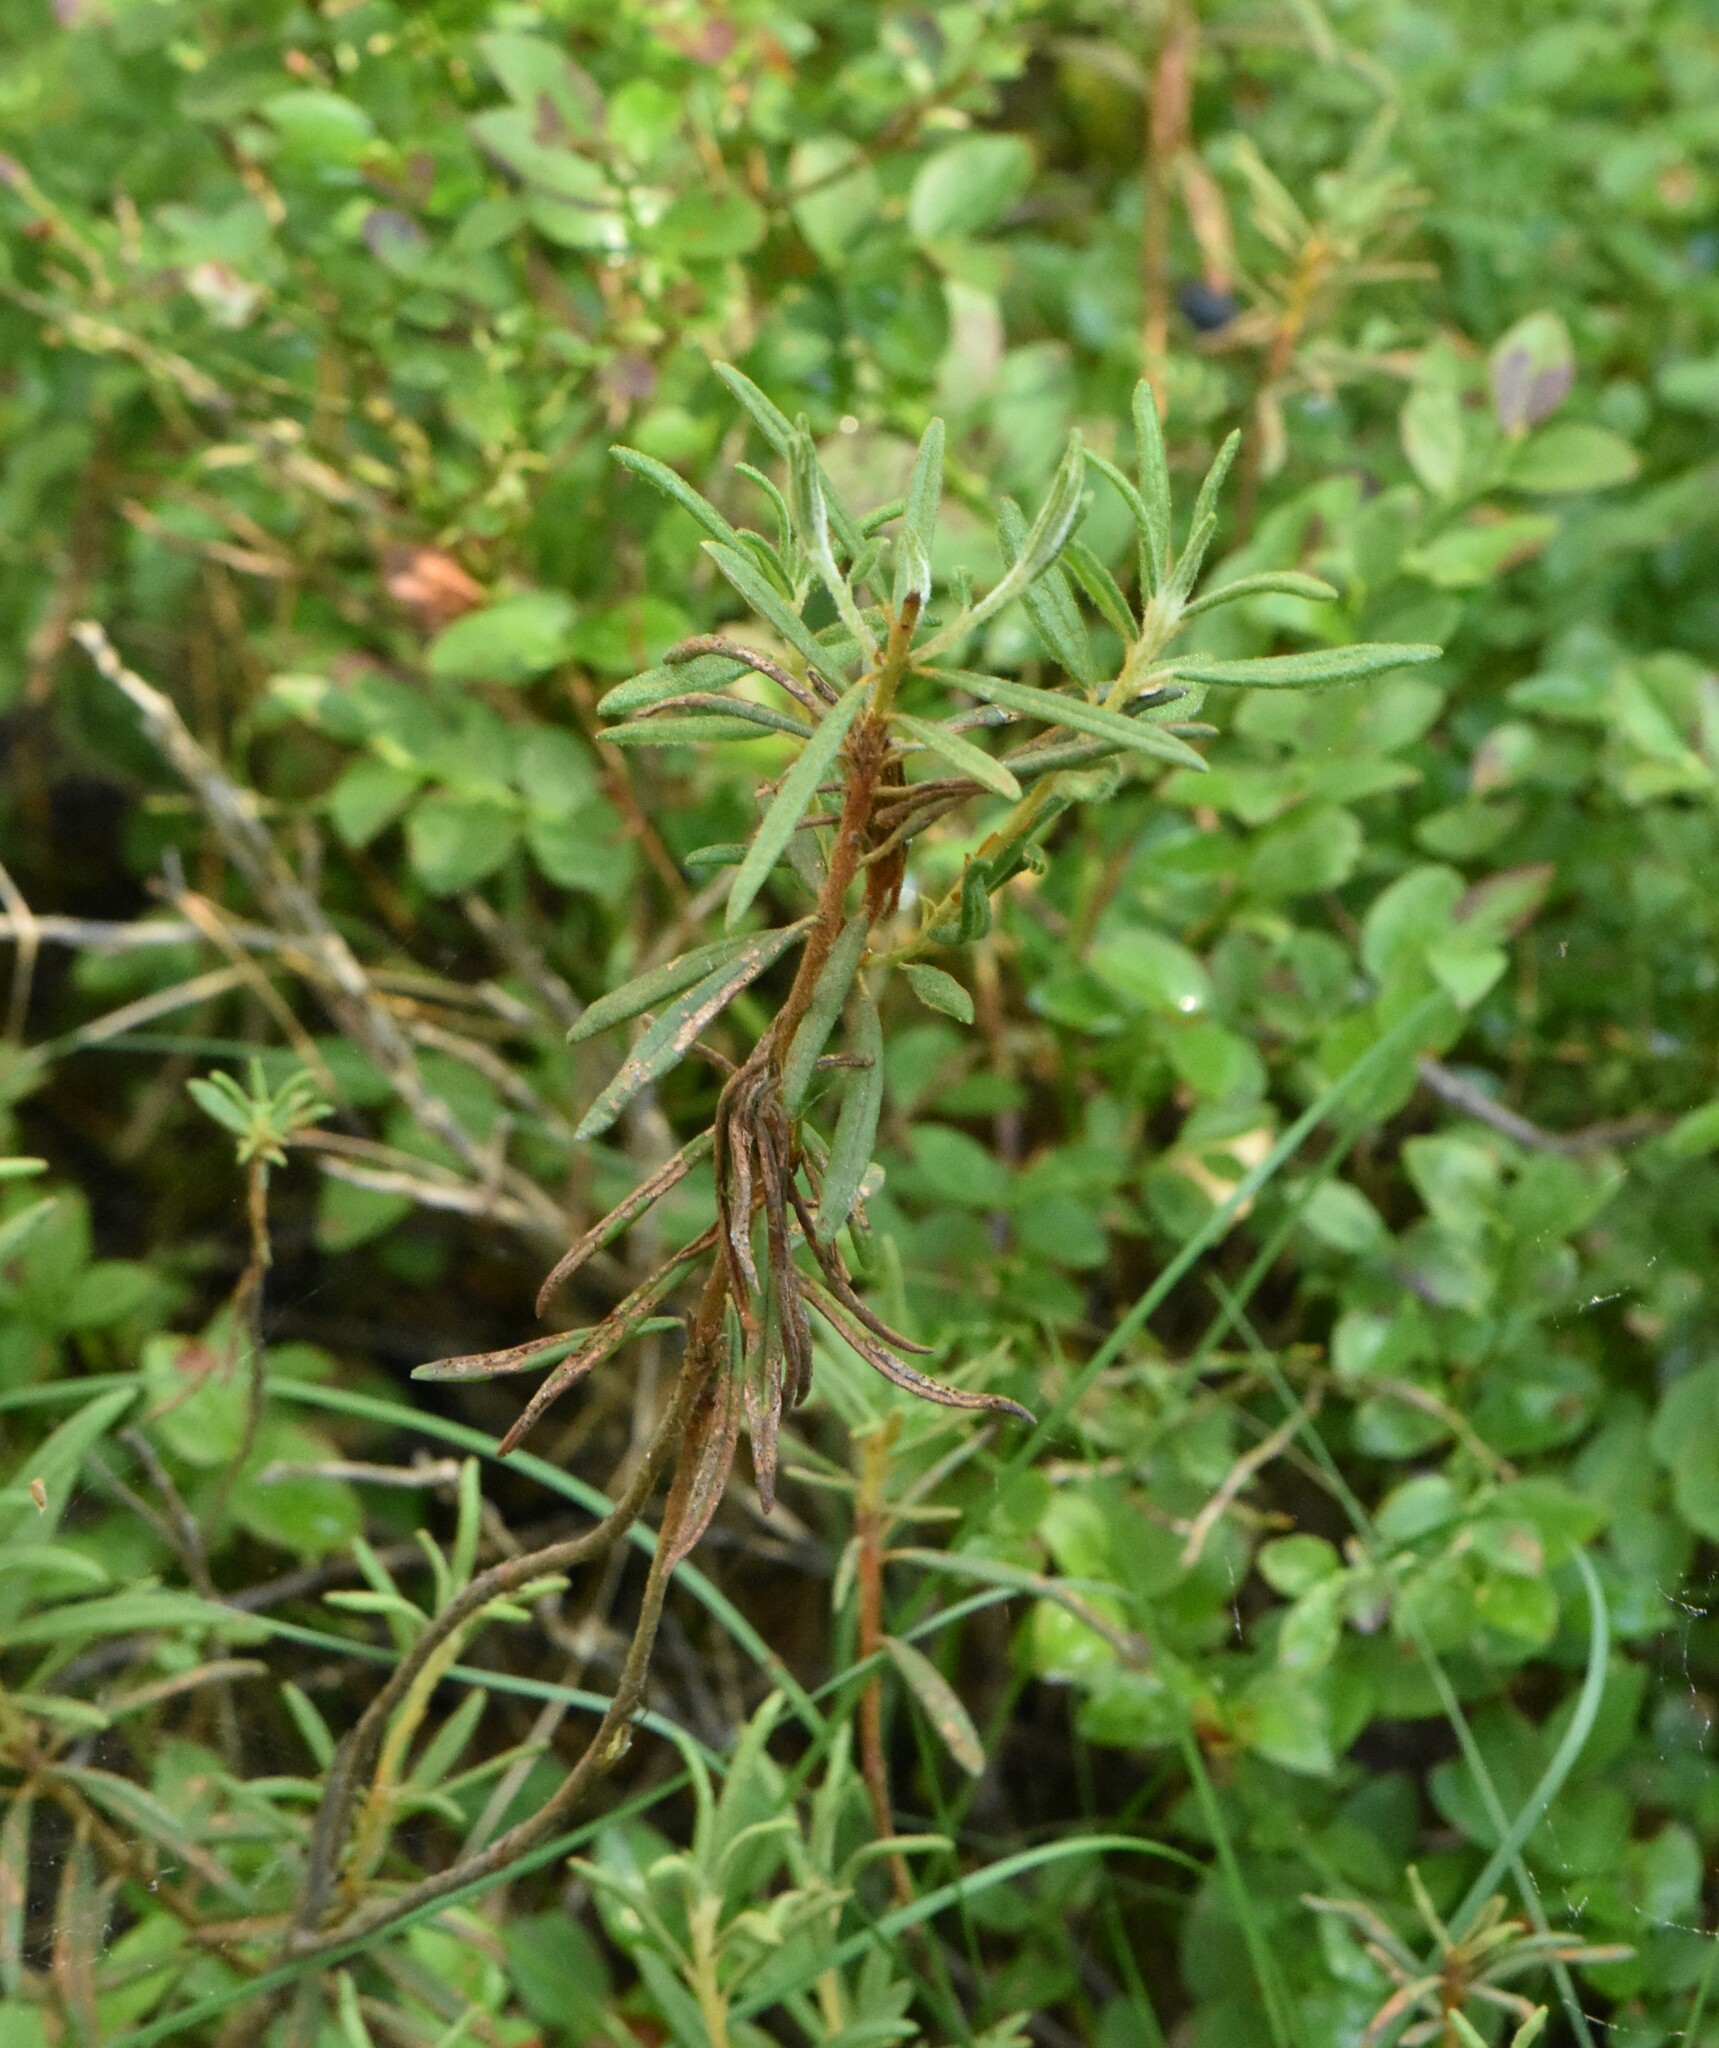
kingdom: Plantae
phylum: Tracheophyta
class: Magnoliopsida
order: Ericales
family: Ericaceae
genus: Rhododendron
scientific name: Rhododendron tomentosum
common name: Marsh labrador tea
